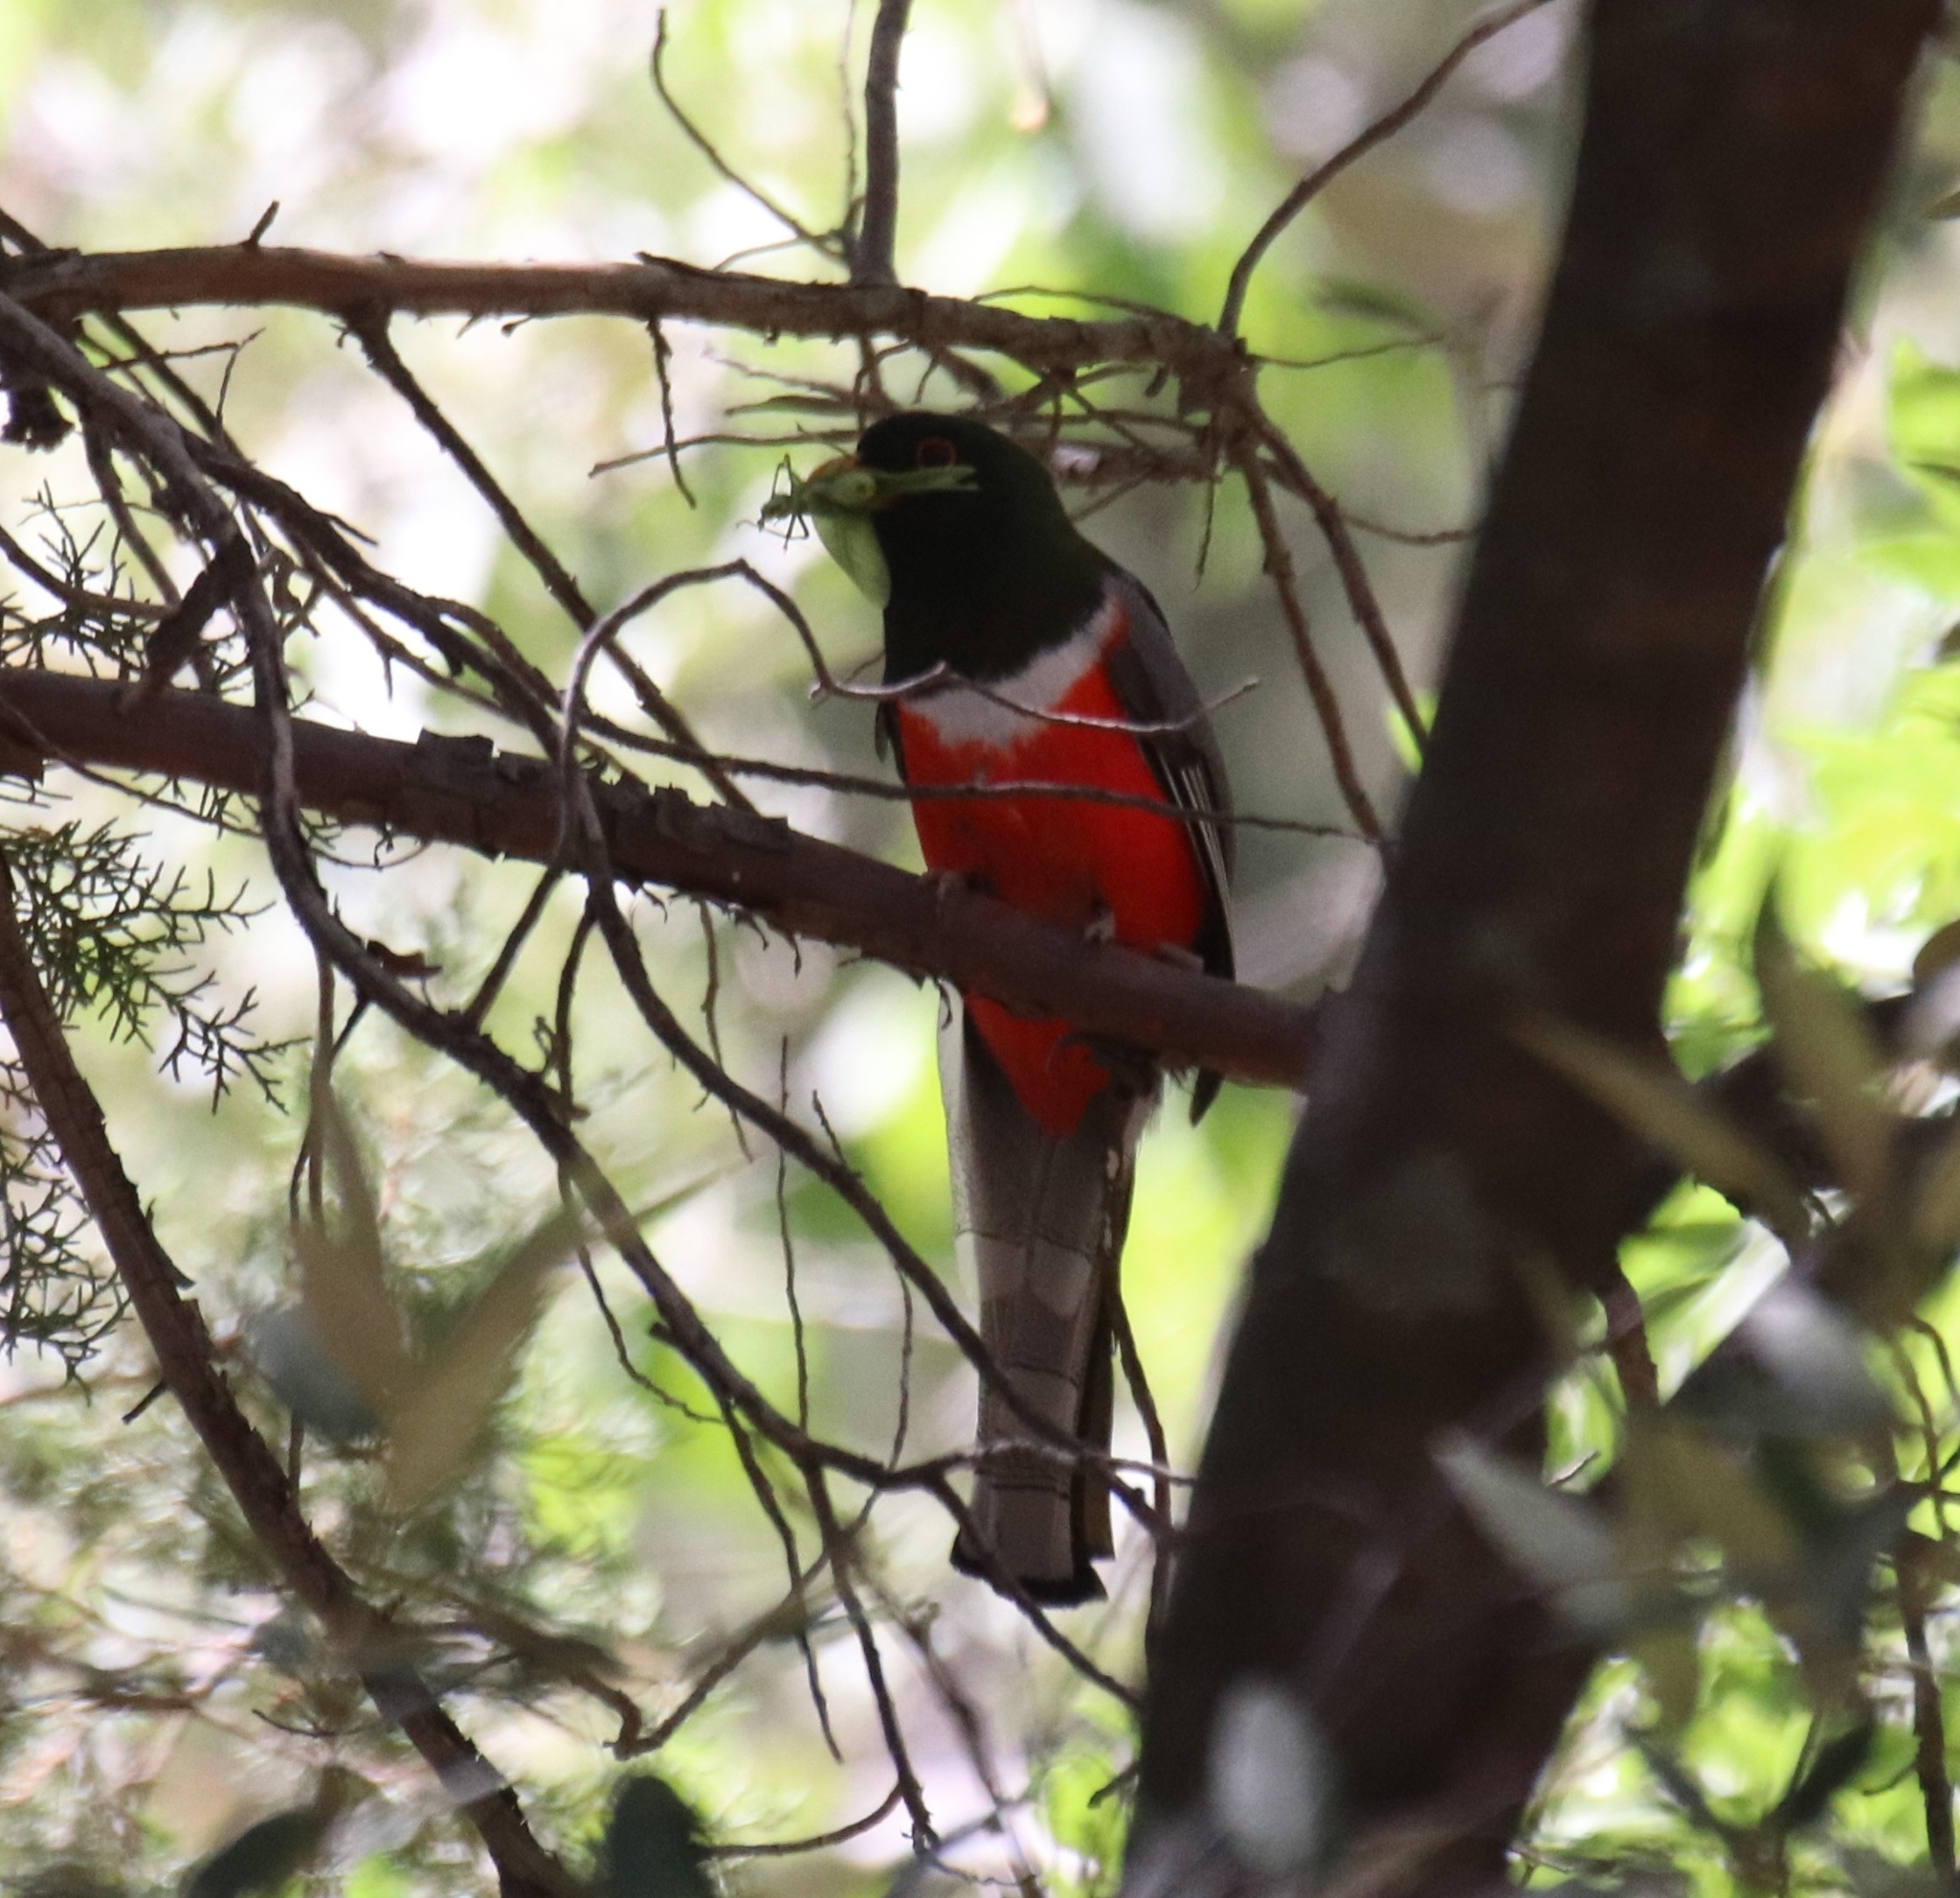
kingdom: Animalia
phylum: Chordata
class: Aves
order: Trogoniformes
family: Trogonidae
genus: Trogon
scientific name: Trogon elegans
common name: Elegant trogon
